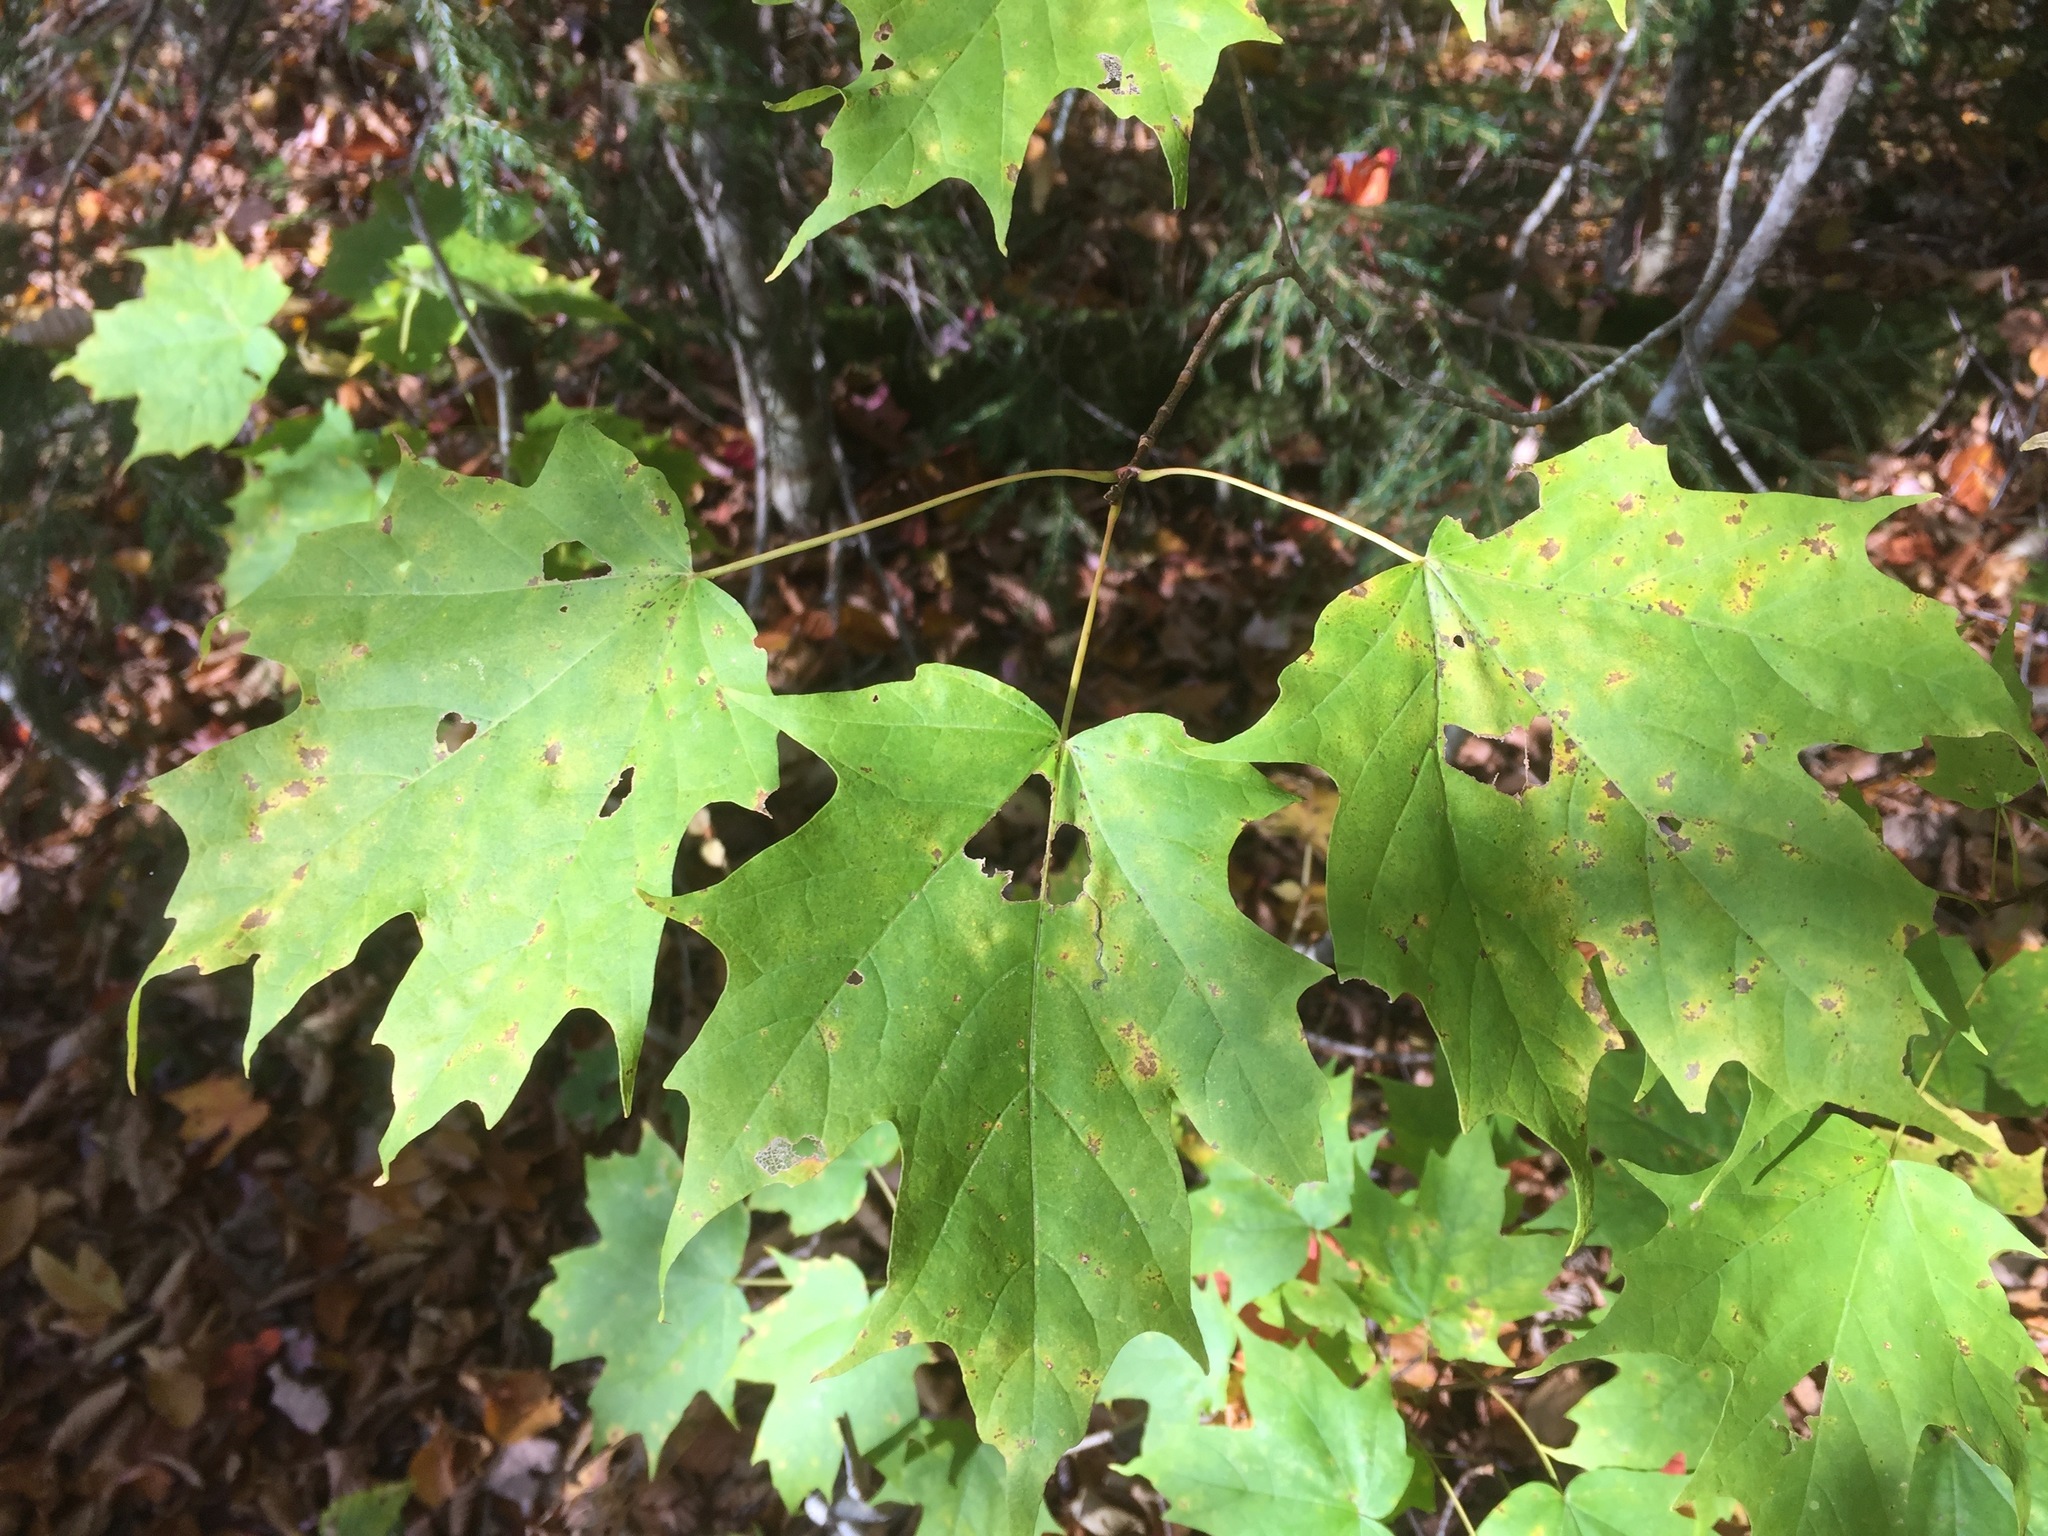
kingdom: Plantae
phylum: Tracheophyta
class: Magnoliopsida
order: Sapindales
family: Sapindaceae
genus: Acer
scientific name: Acer saccharum
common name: Sugar maple
